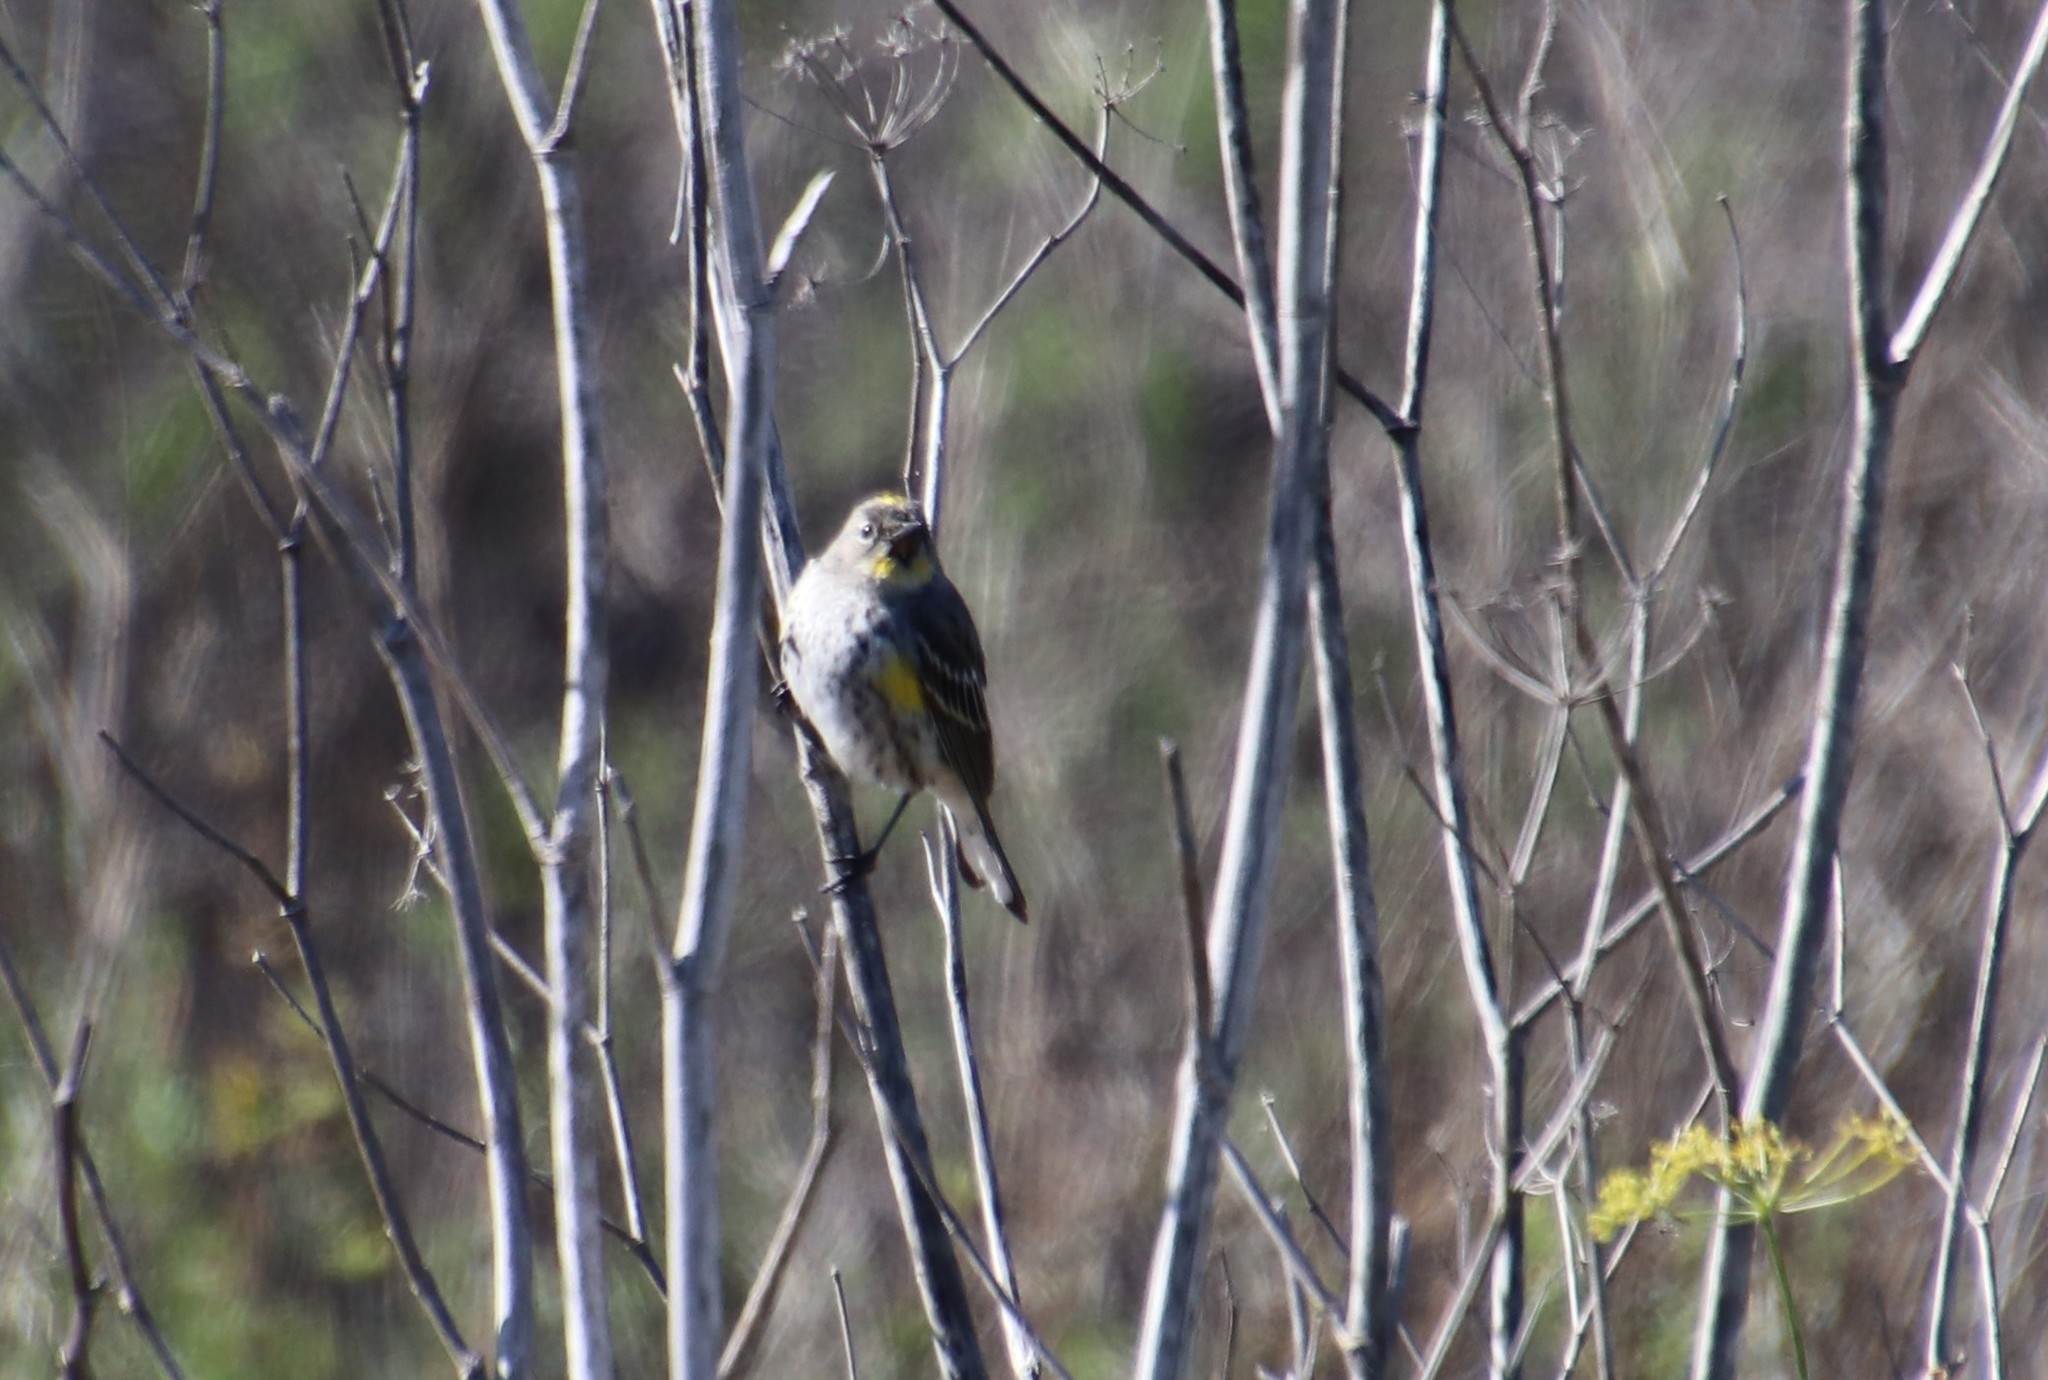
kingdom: Animalia
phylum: Chordata
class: Aves
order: Passeriformes
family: Parulidae
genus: Setophaga
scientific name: Setophaga auduboni
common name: Audubon's warbler
